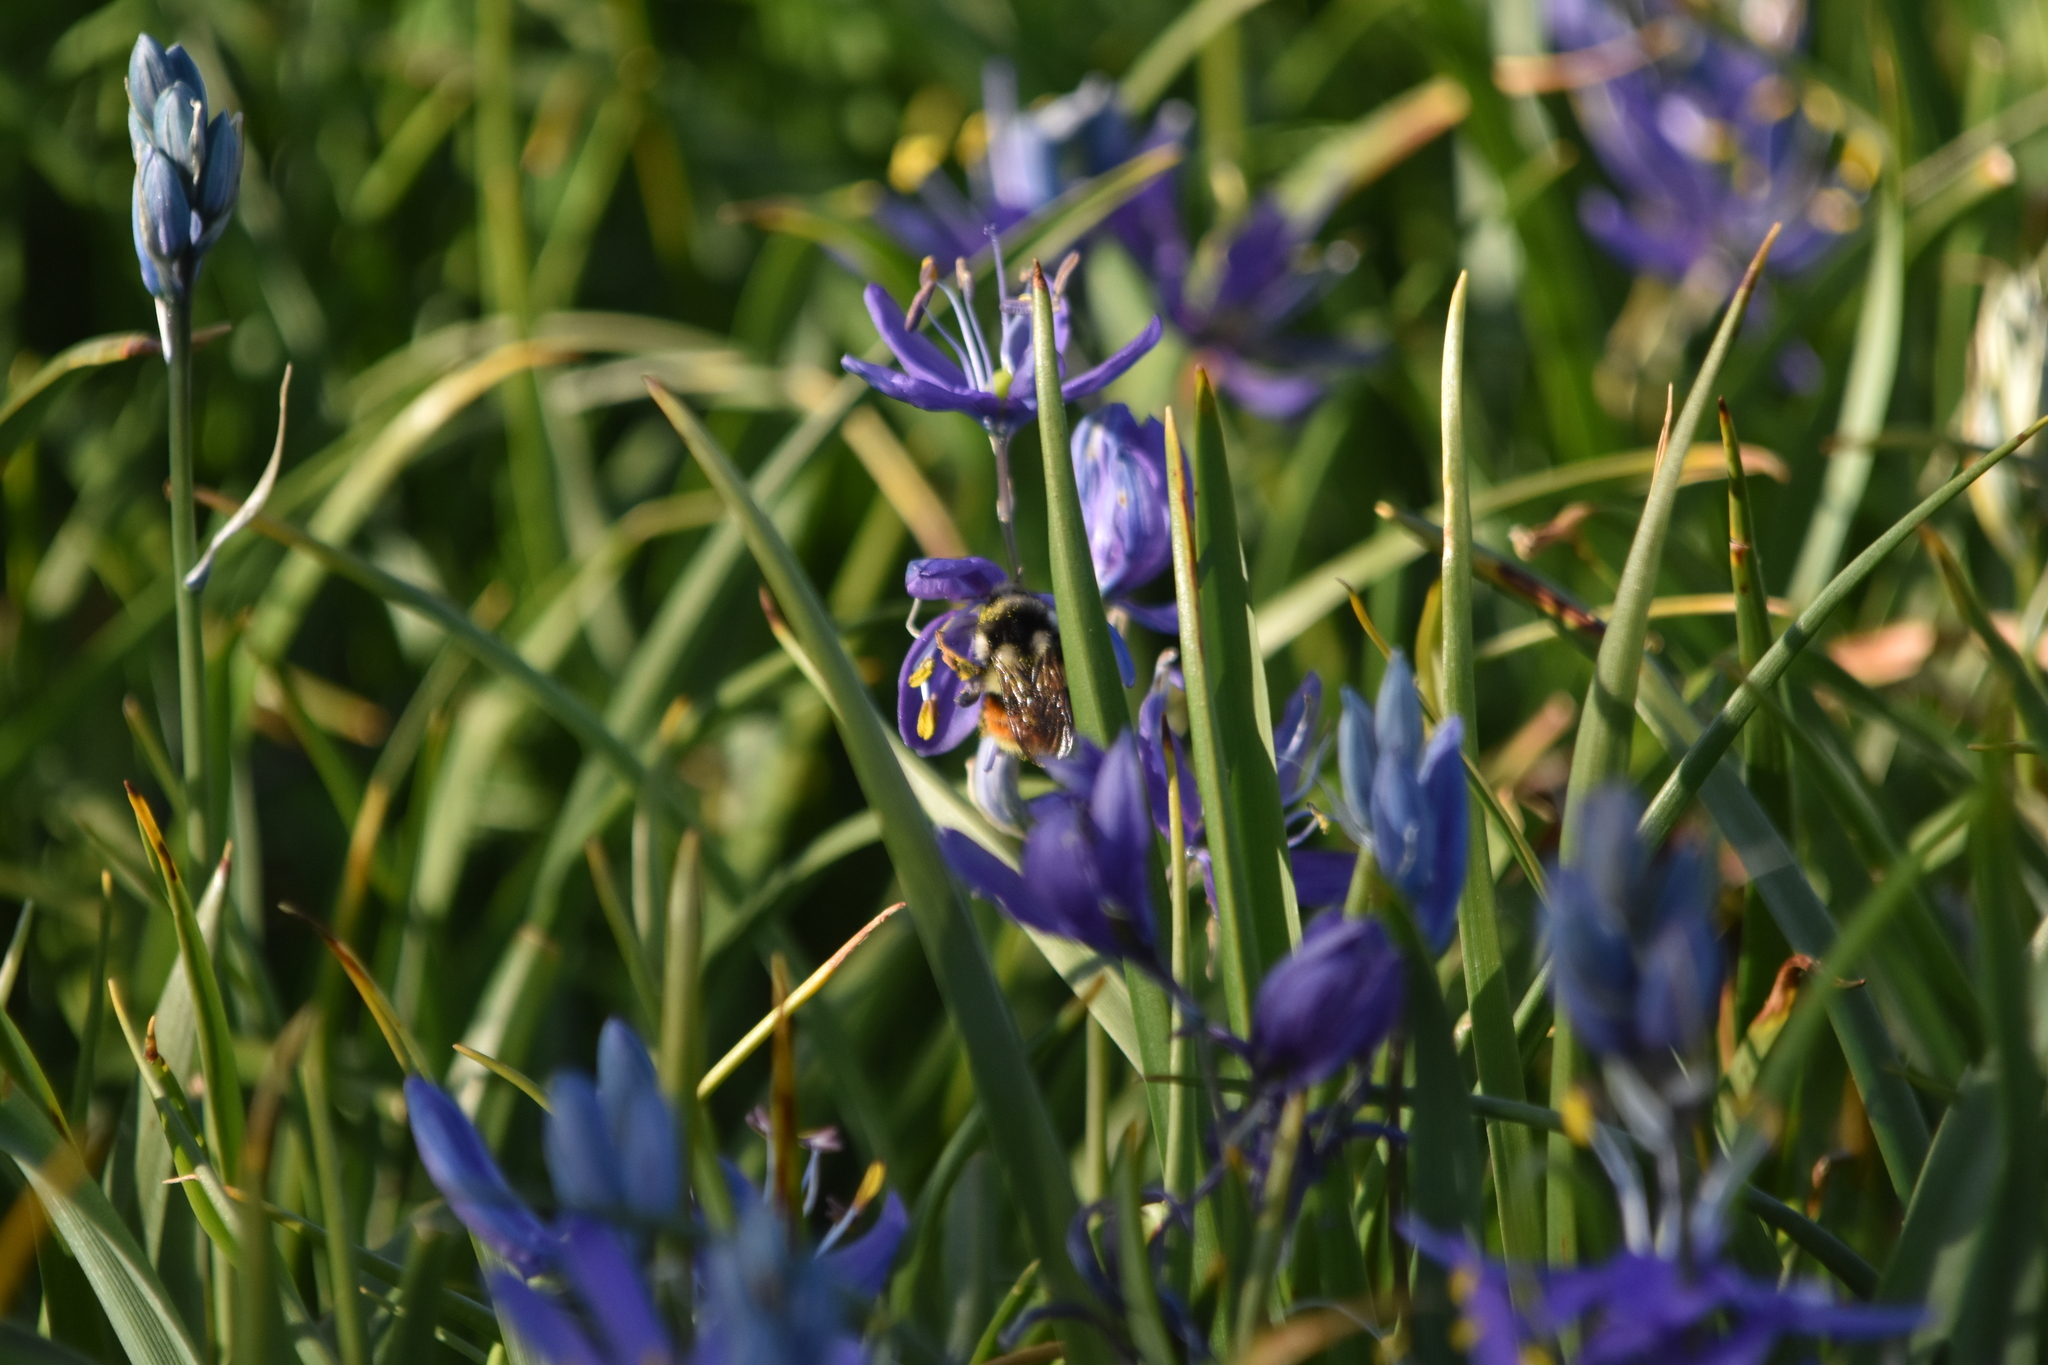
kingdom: Animalia
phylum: Arthropoda
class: Insecta
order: Hymenoptera
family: Apidae
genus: Bombus
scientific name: Bombus vancouverensis
